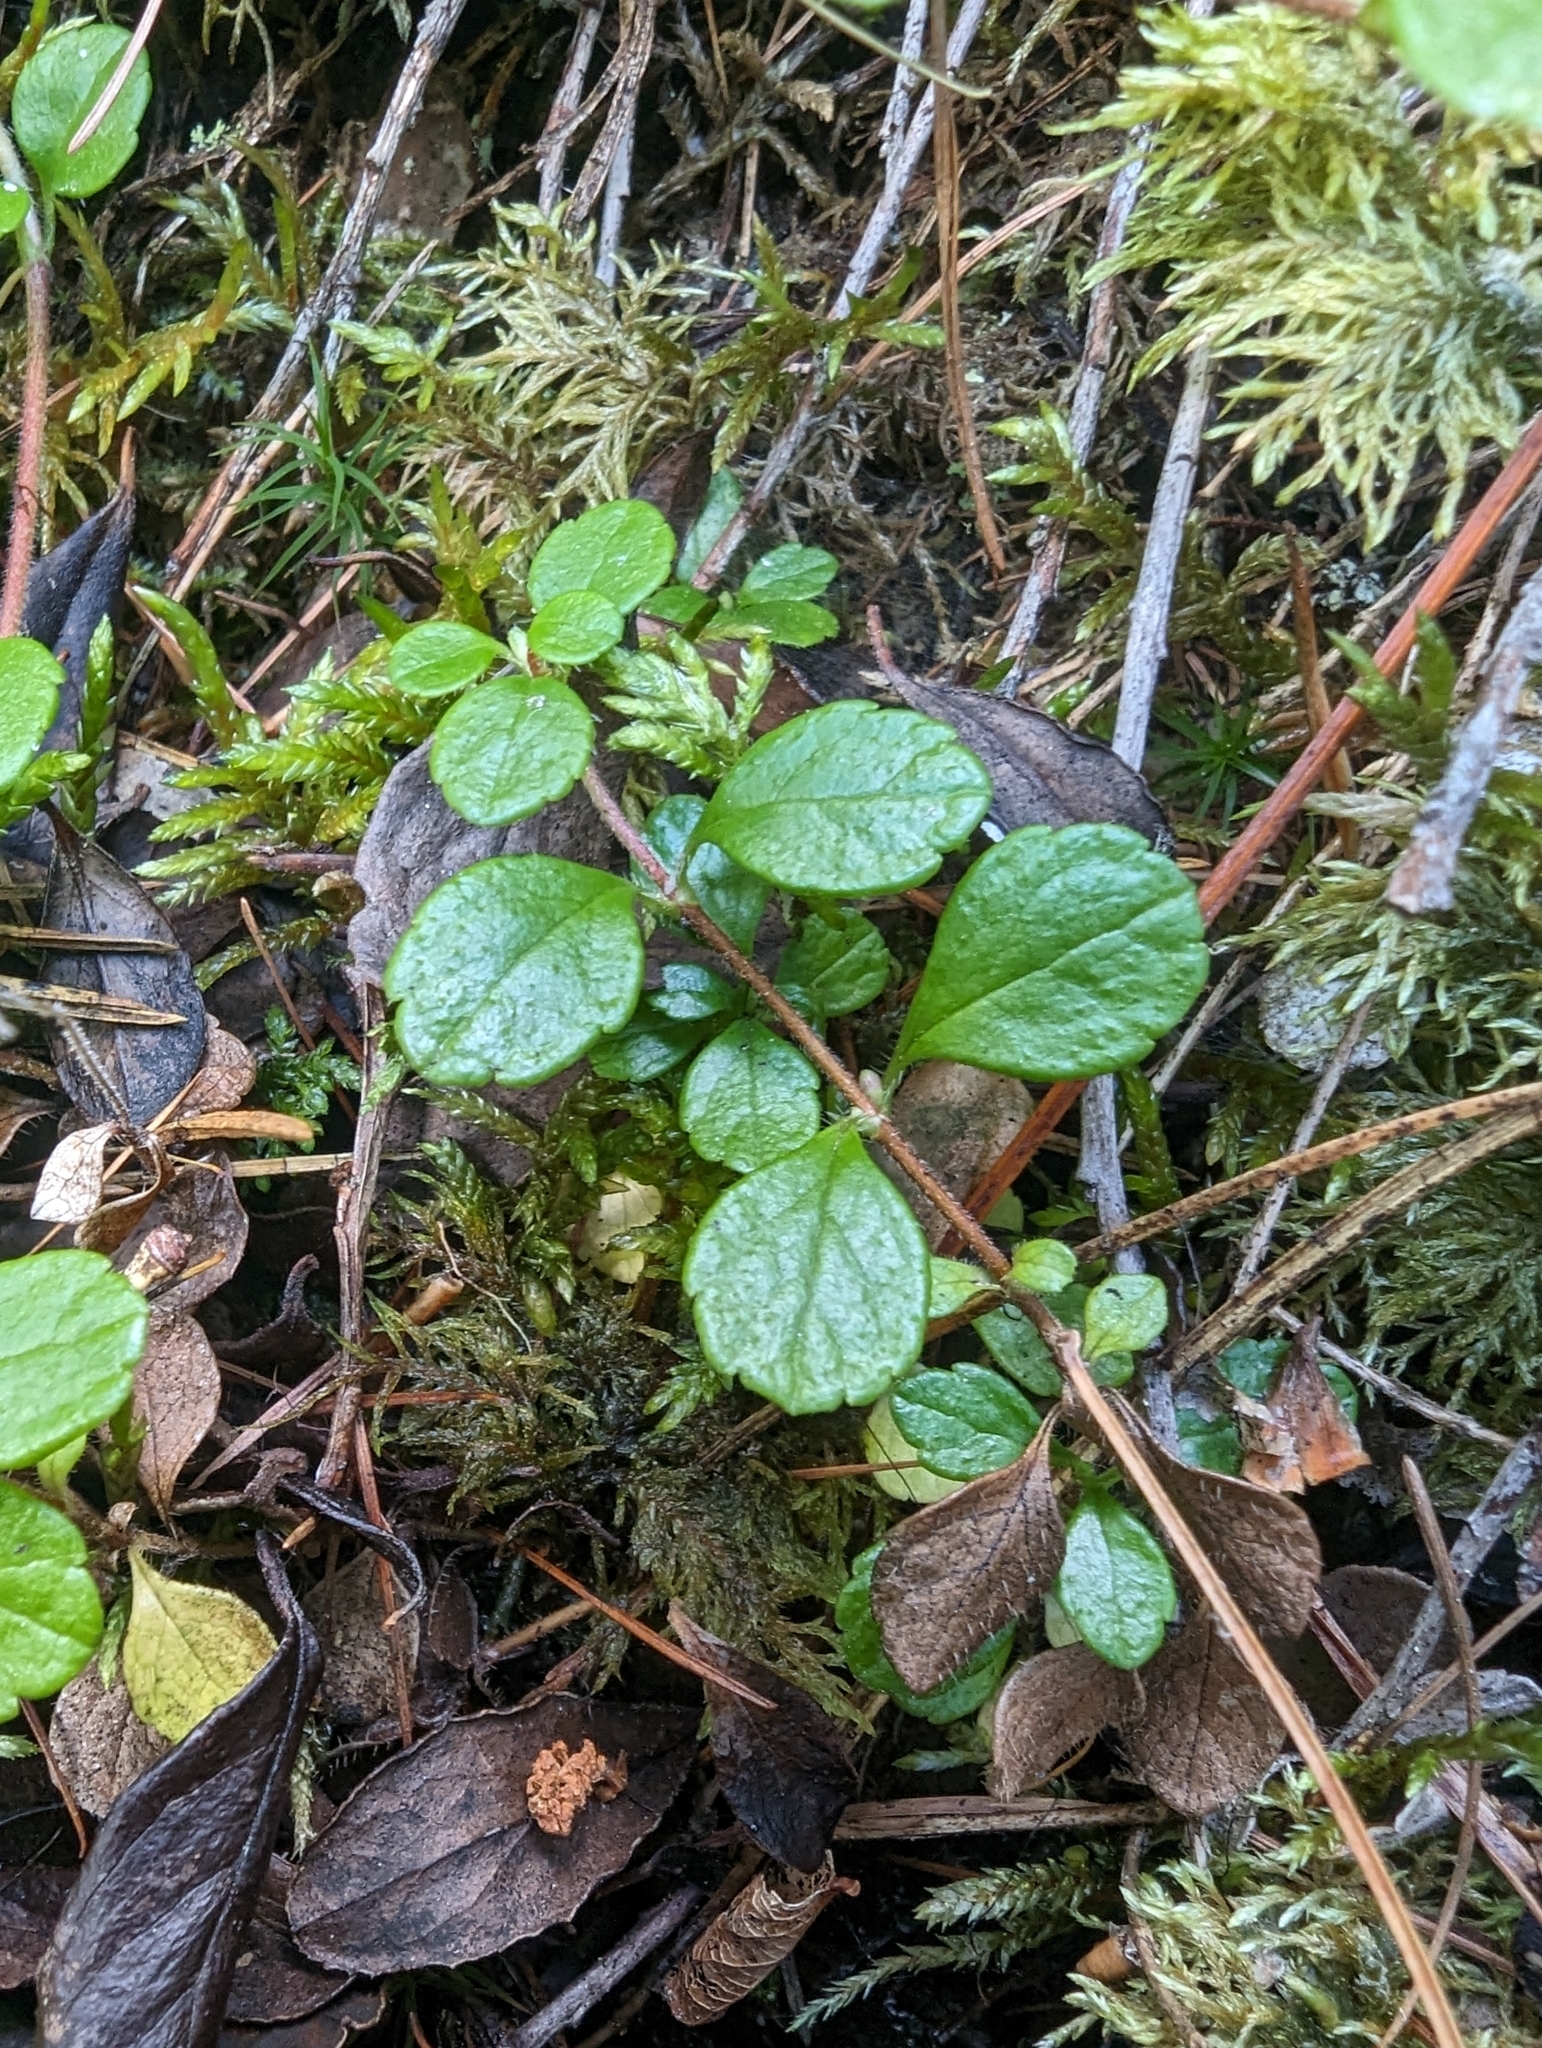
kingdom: Plantae
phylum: Tracheophyta
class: Magnoliopsida
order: Dipsacales
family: Caprifoliaceae
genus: Linnaea
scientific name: Linnaea borealis
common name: Twinflower
